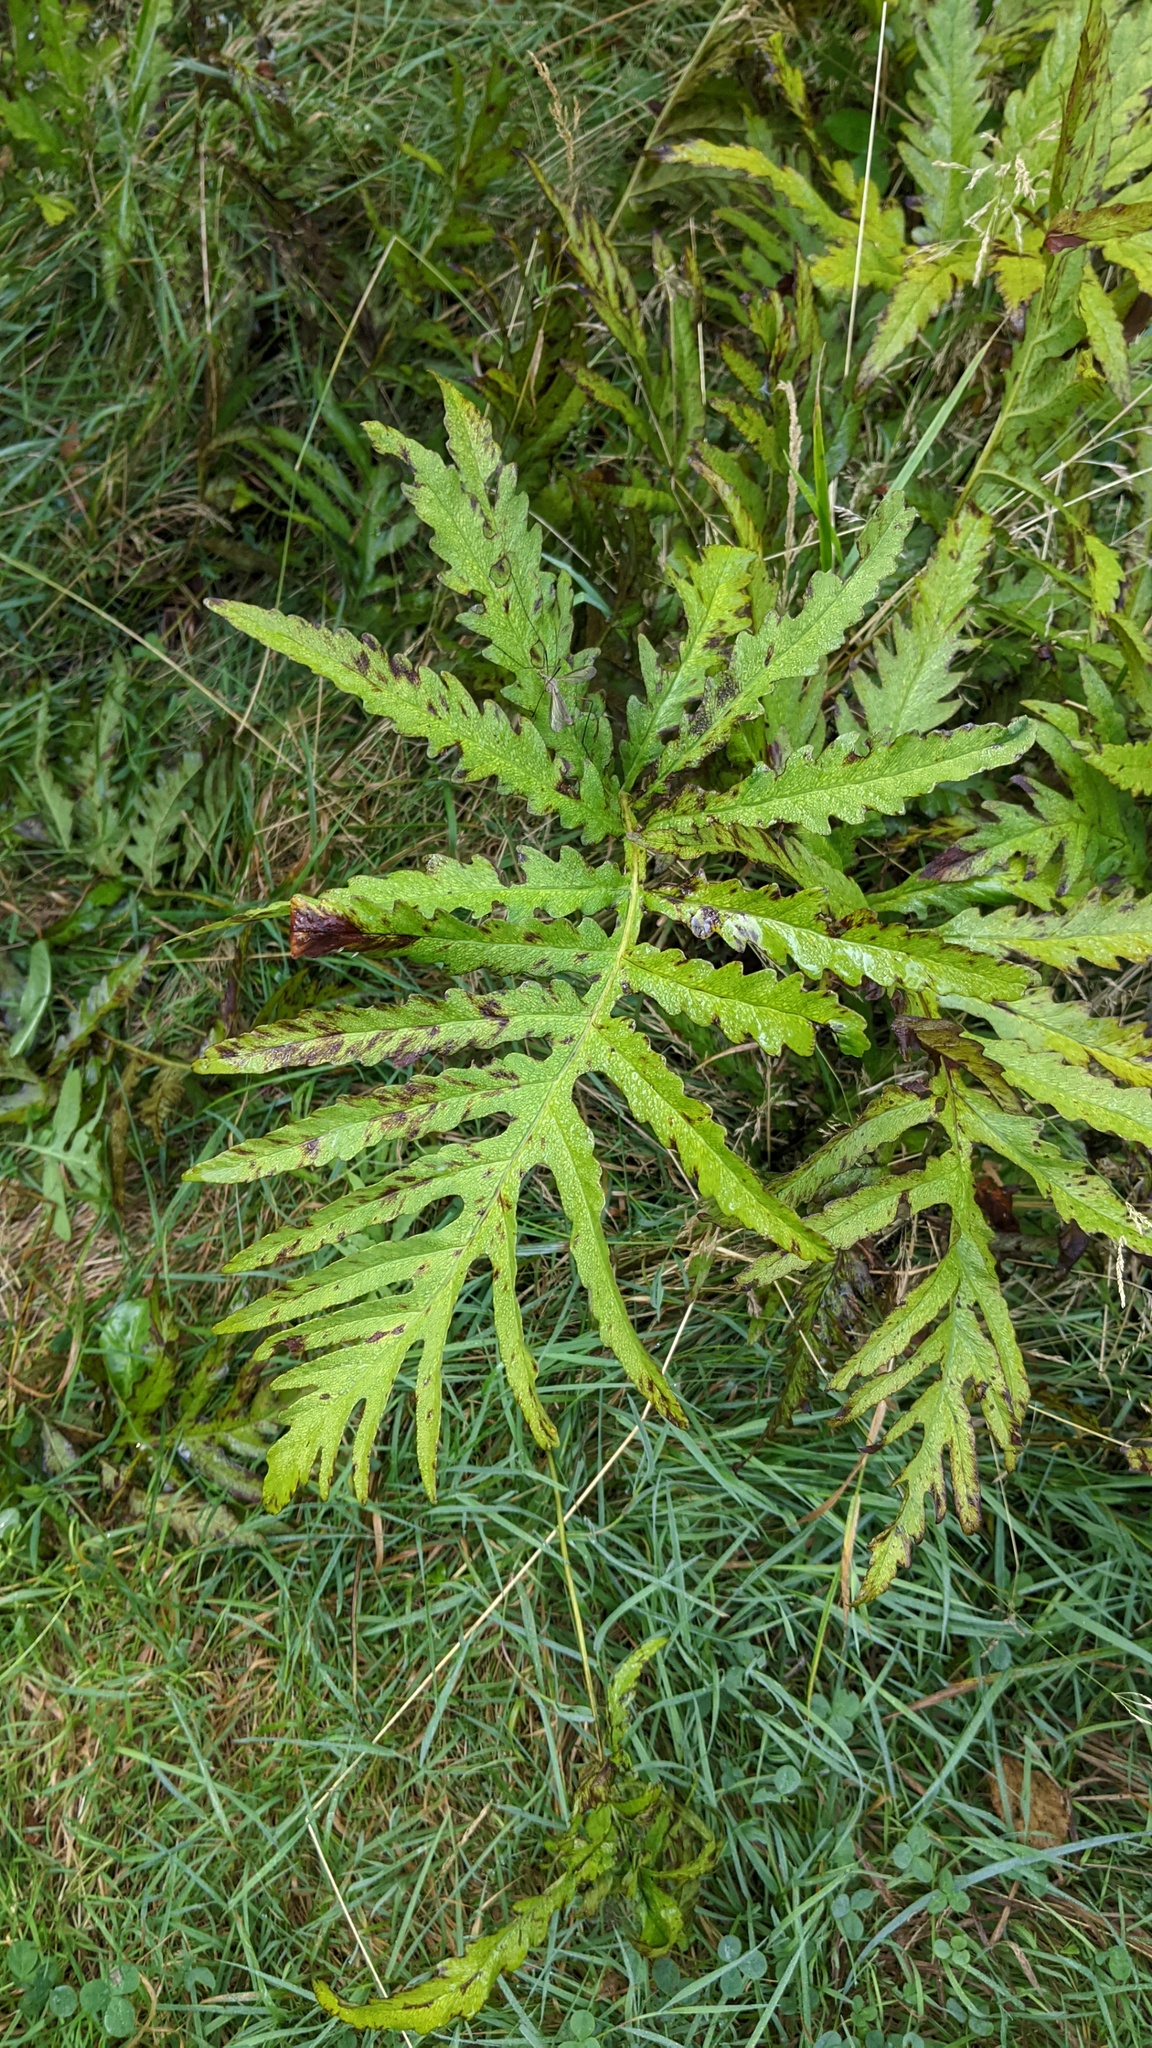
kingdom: Plantae
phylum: Tracheophyta
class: Polypodiopsida
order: Polypodiales
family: Onocleaceae
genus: Onoclea
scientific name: Onoclea sensibilis
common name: Sensitive fern
